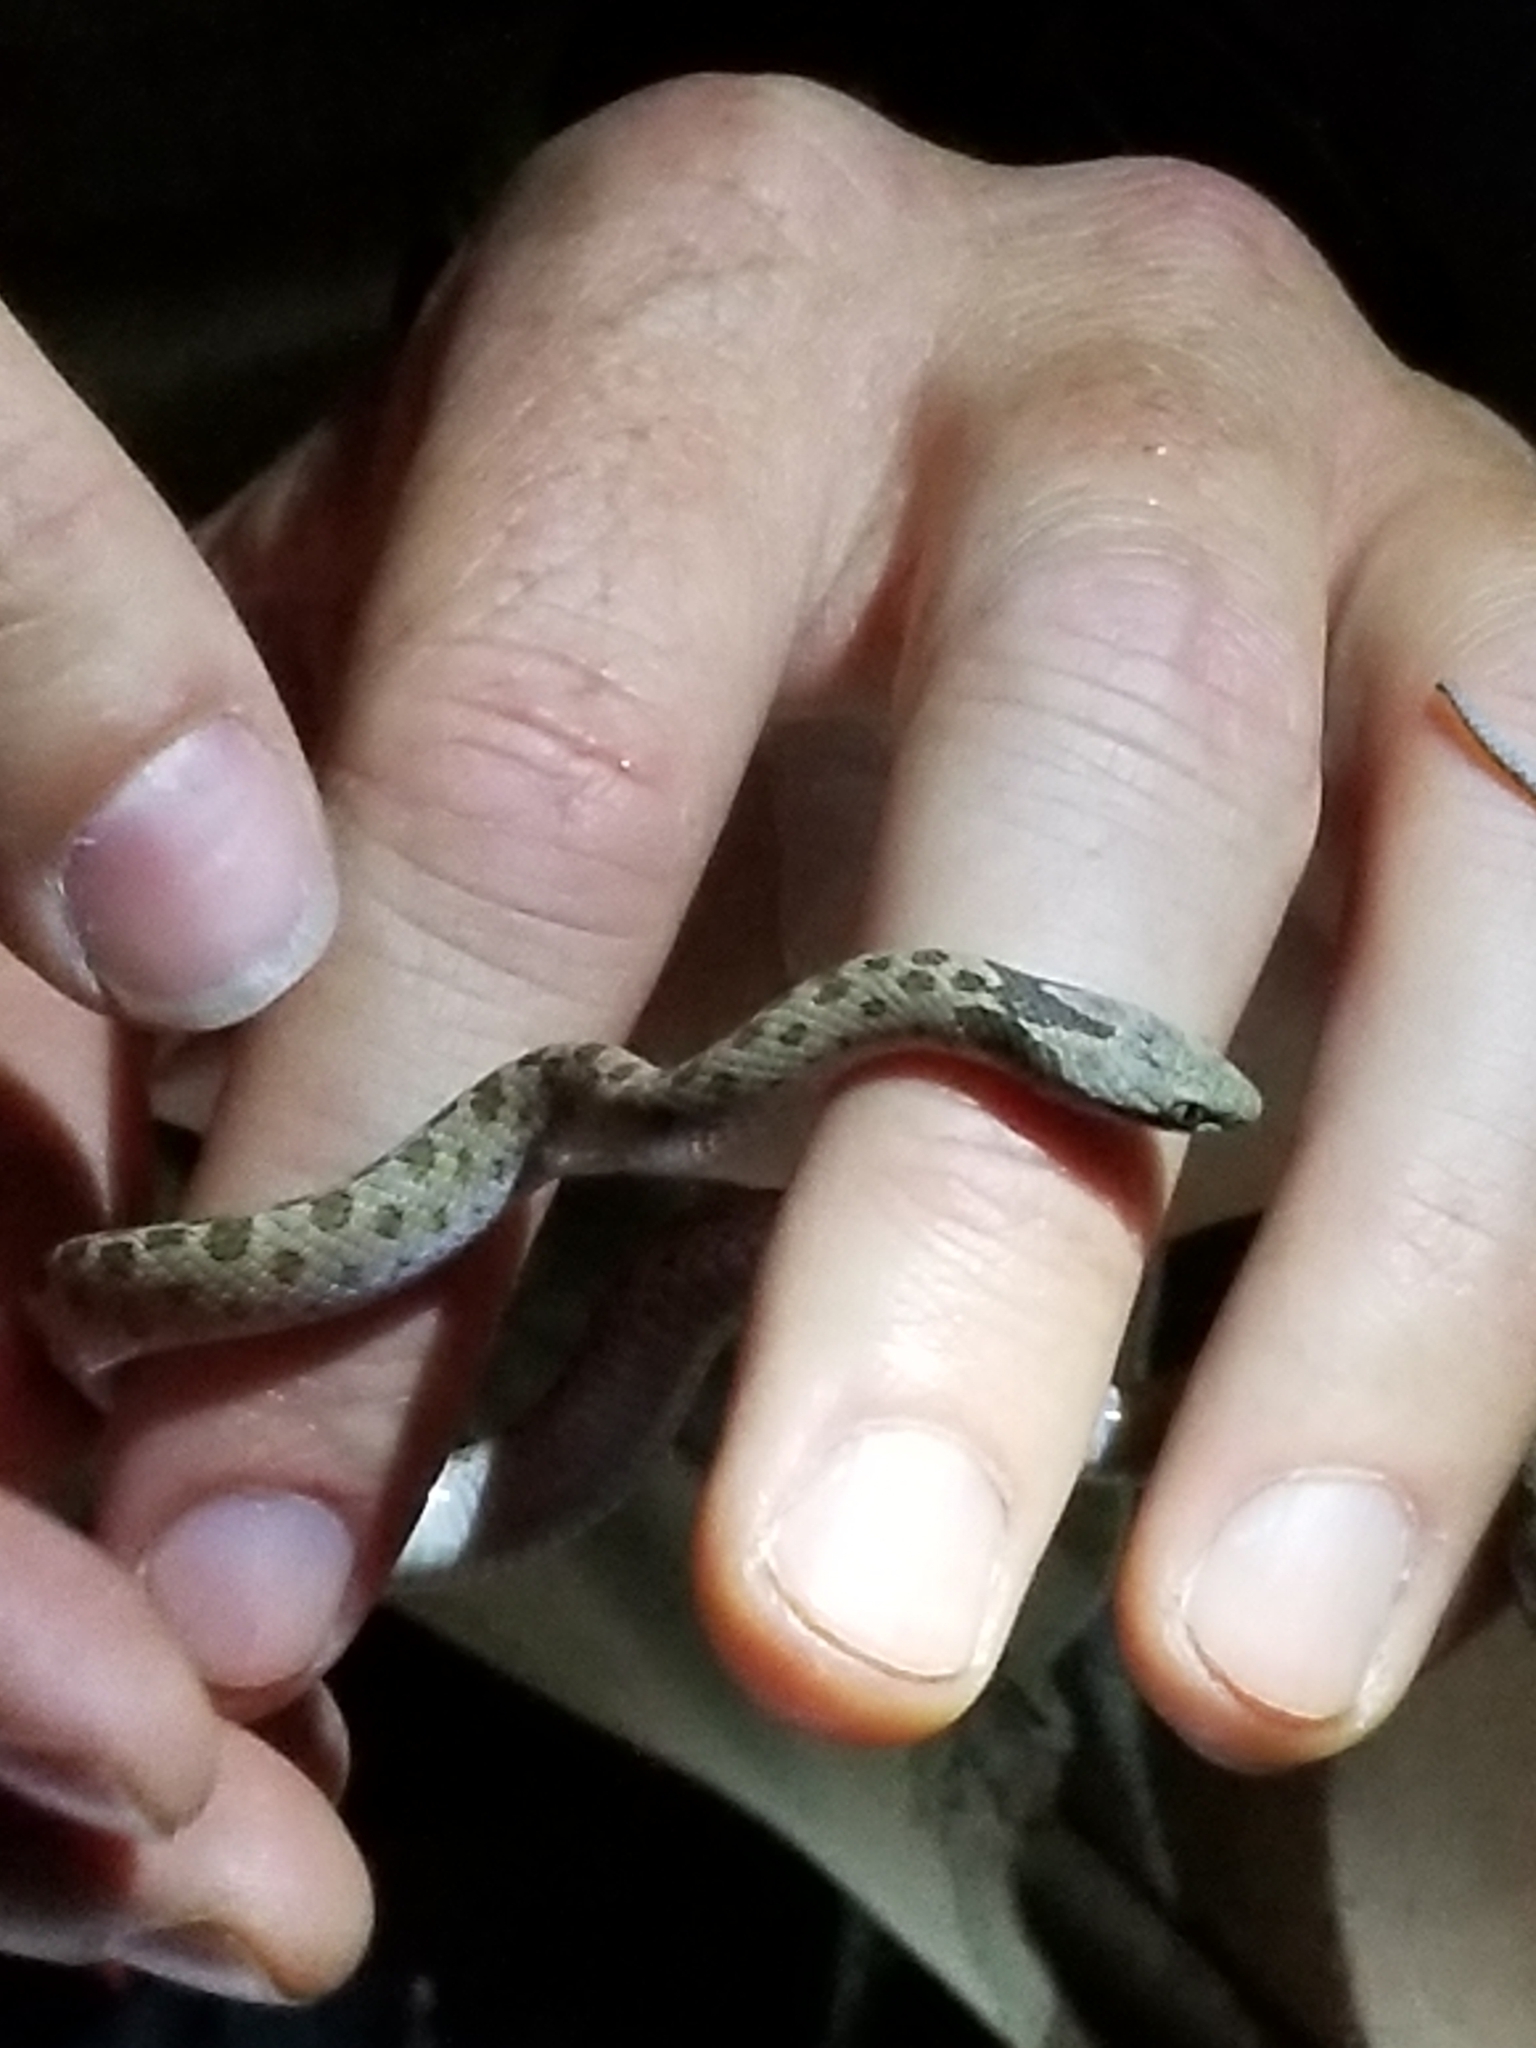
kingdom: Animalia
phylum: Chordata
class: Squamata
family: Colubridae
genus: Hypsiglena
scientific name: Hypsiglena chlorophaea
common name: Desert nightsnake
